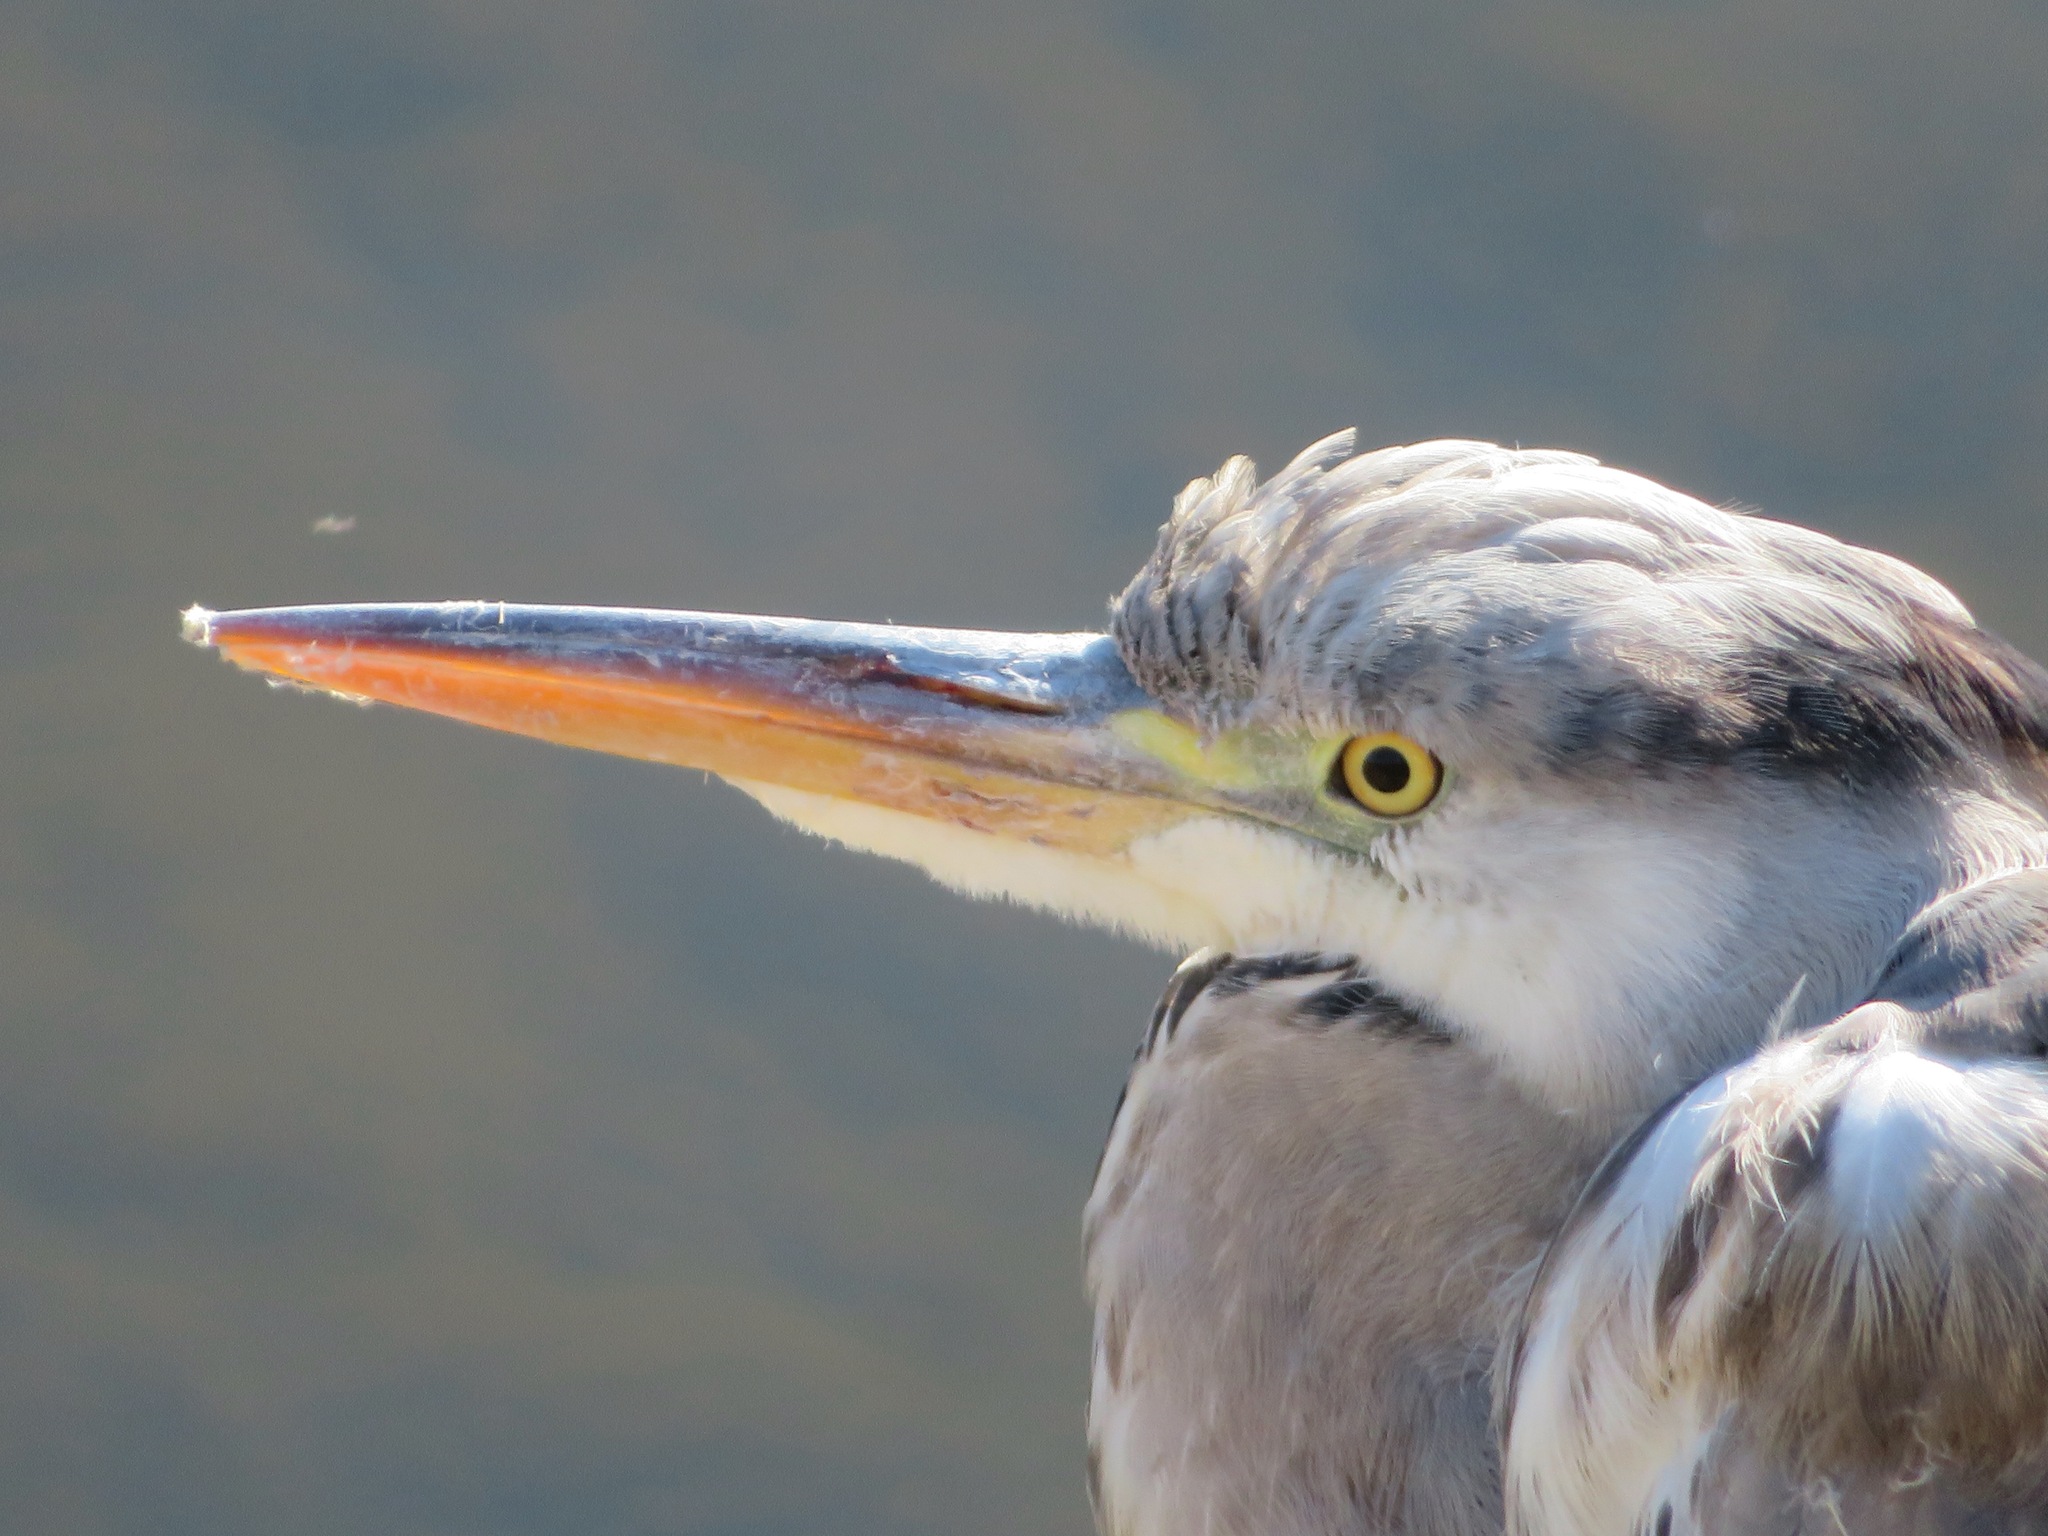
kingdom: Animalia
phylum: Chordata
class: Aves
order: Pelecaniformes
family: Ardeidae
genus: Ardea
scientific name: Ardea cinerea
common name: Grey heron
